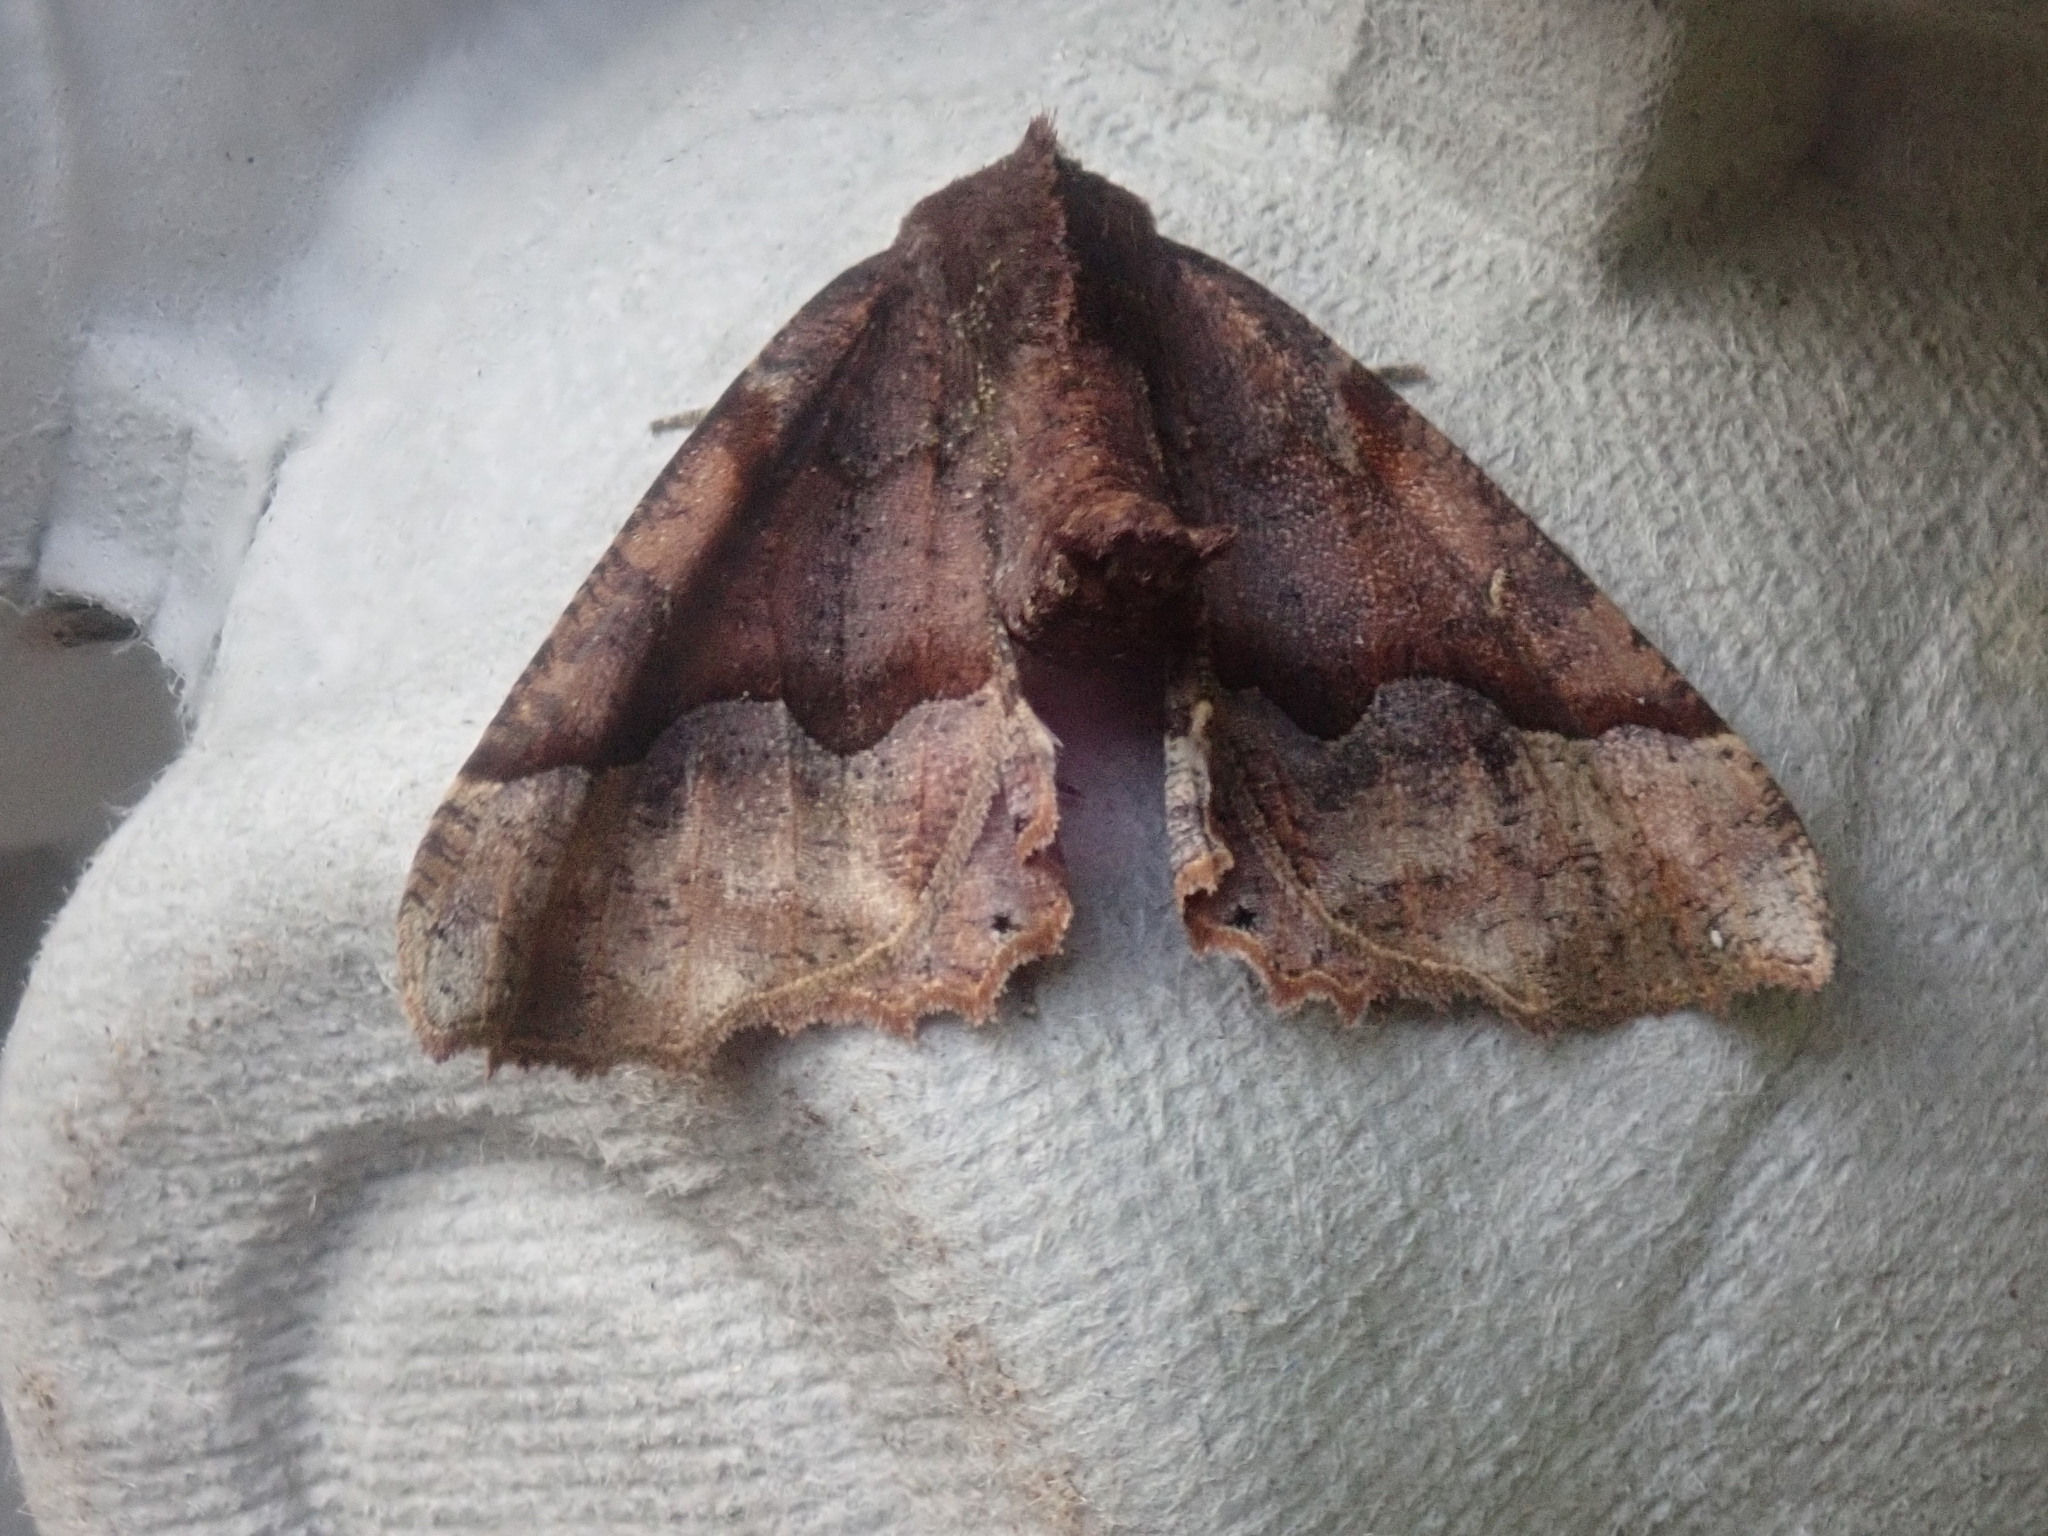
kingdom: Animalia
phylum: Arthropoda
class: Insecta
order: Lepidoptera
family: Geometridae
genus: Pero
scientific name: Pero morrisonaria
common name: Morrison's pero
